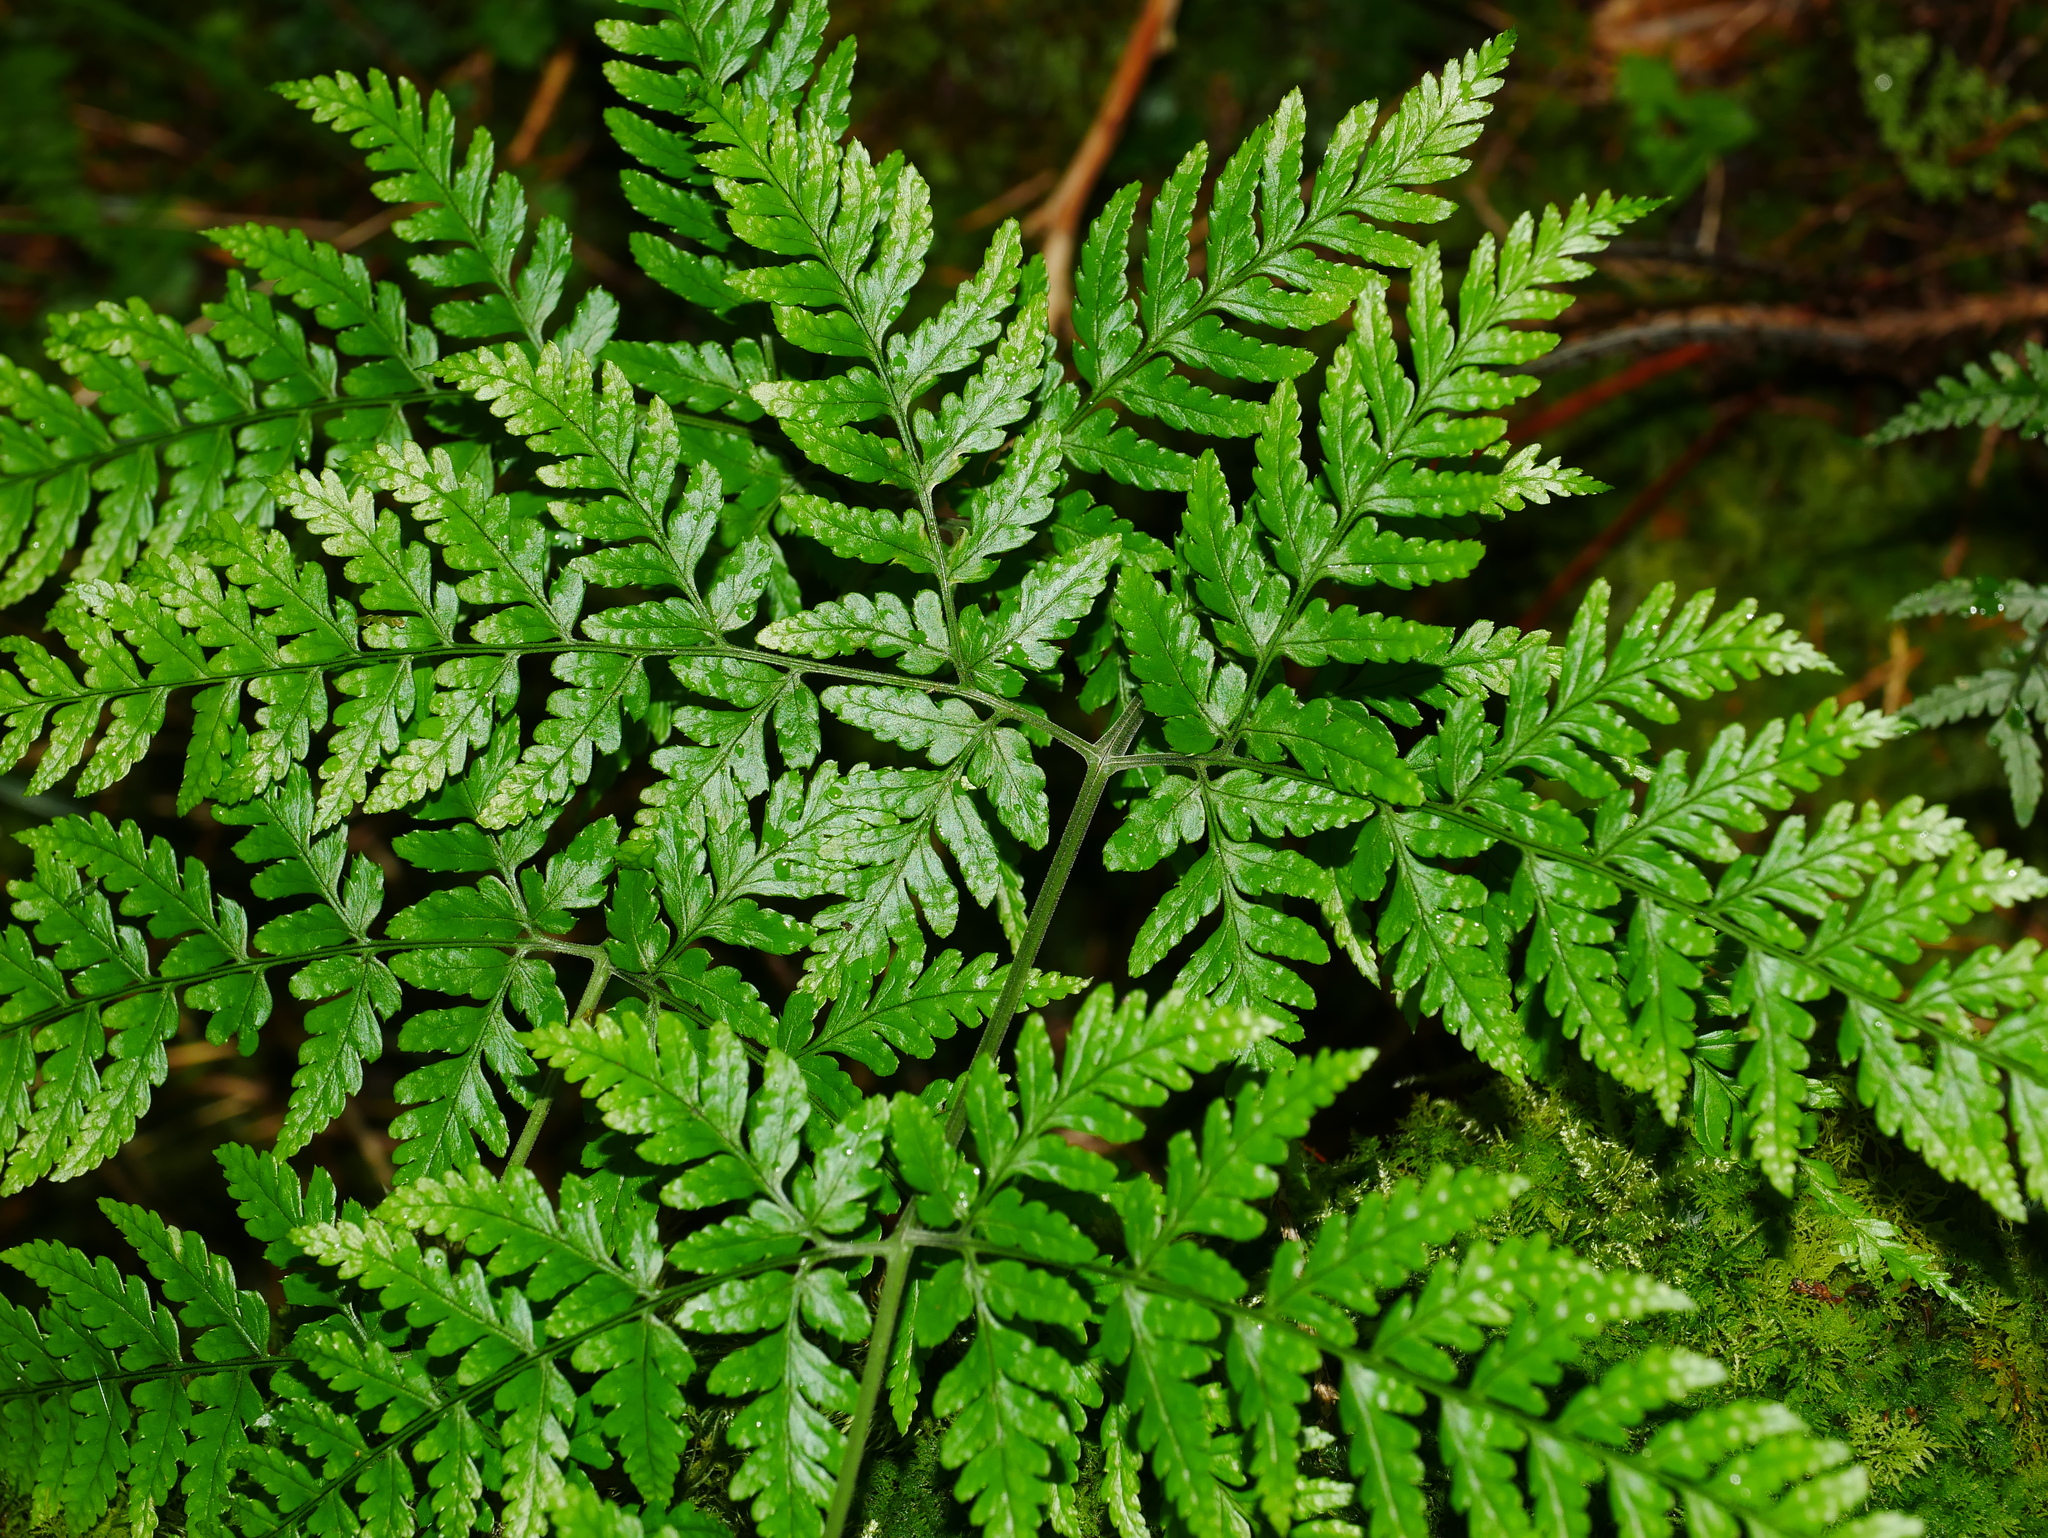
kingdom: Plantae
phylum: Tracheophyta
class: Polypodiopsida
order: Polypodiales
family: Dryopteridaceae
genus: Dryopteris
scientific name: Dryopteris melanocarpa
